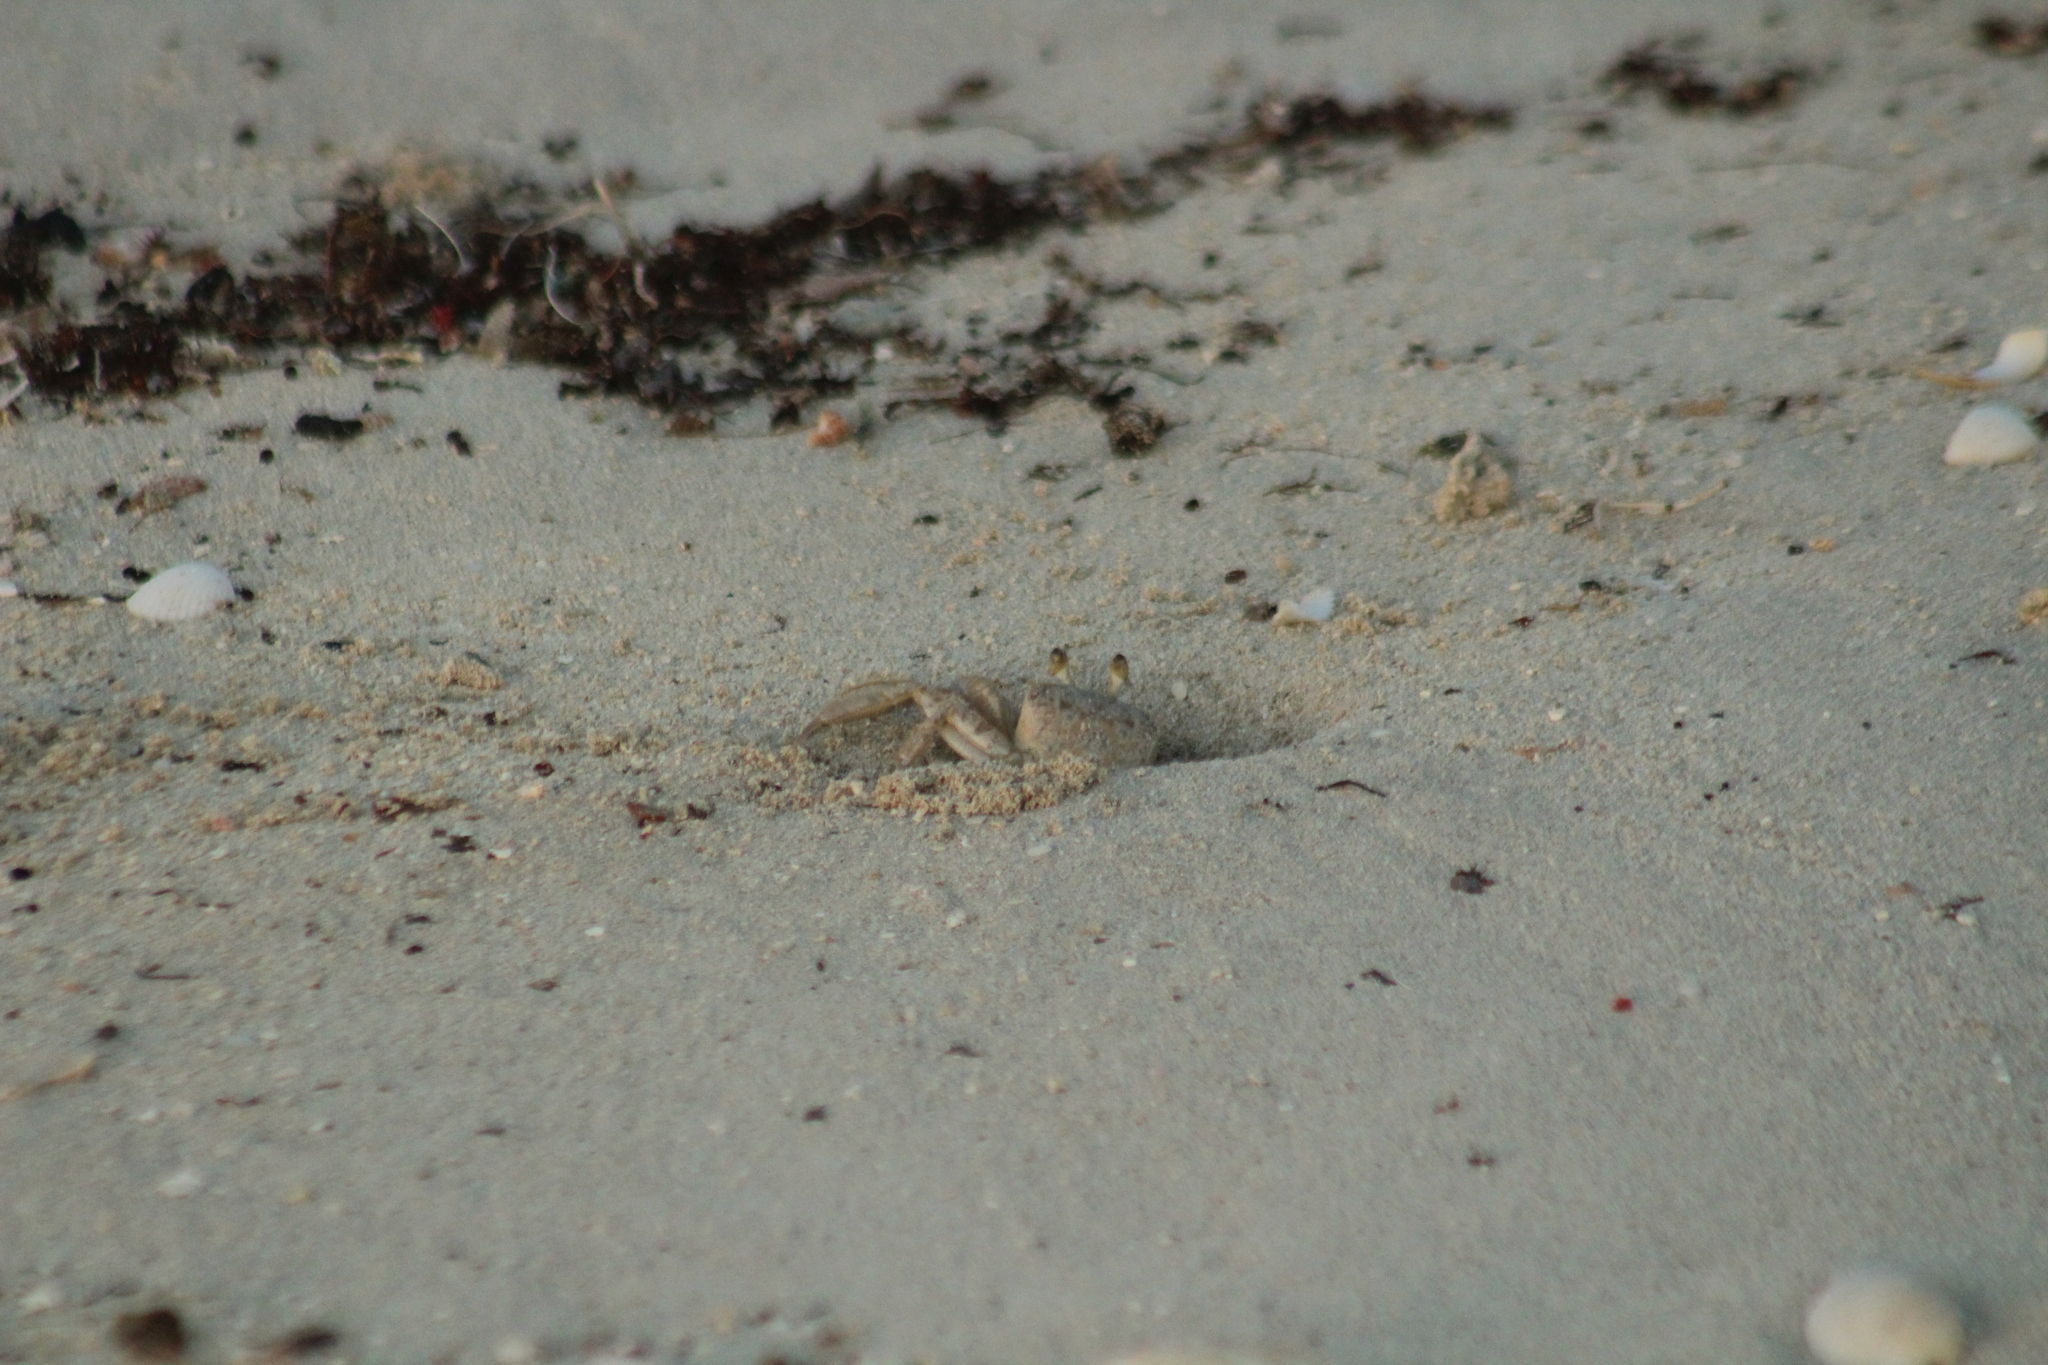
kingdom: Animalia
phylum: Arthropoda
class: Malacostraca
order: Decapoda
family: Ocypodidae
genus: Ocypode
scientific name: Ocypode quadrata
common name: Ghost crab
